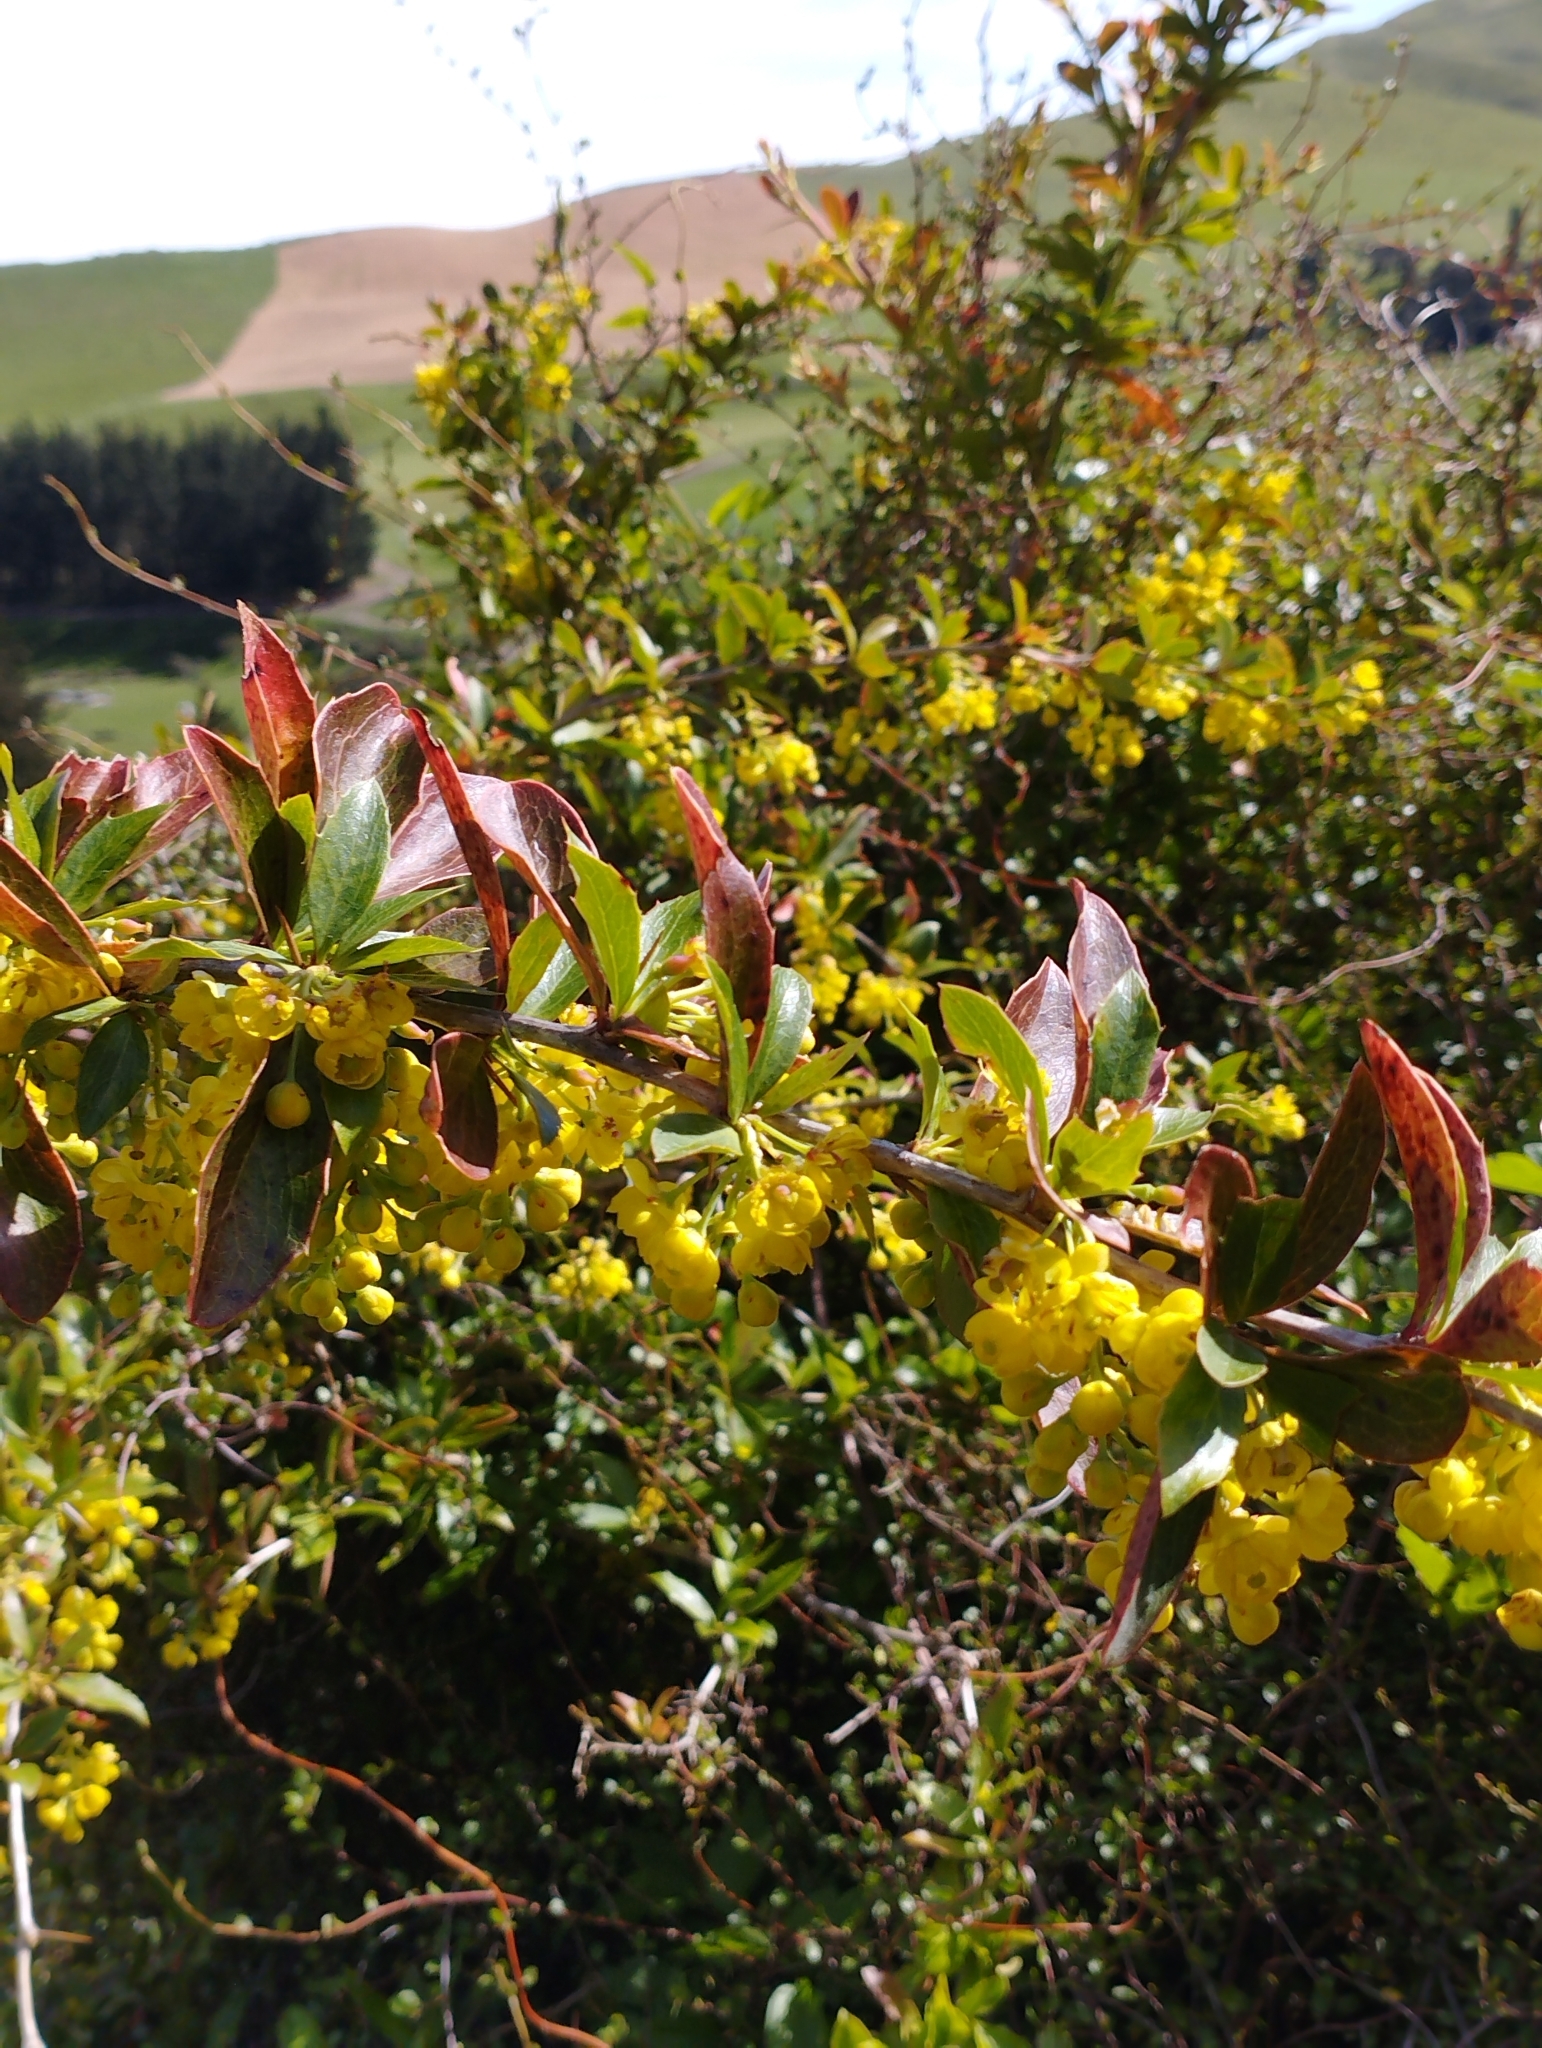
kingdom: Plantae
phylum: Tracheophyta
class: Magnoliopsida
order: Ranunculales
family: Berberidaceae
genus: Berberis
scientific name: Berberis glaucocarpa
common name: Great barberry
